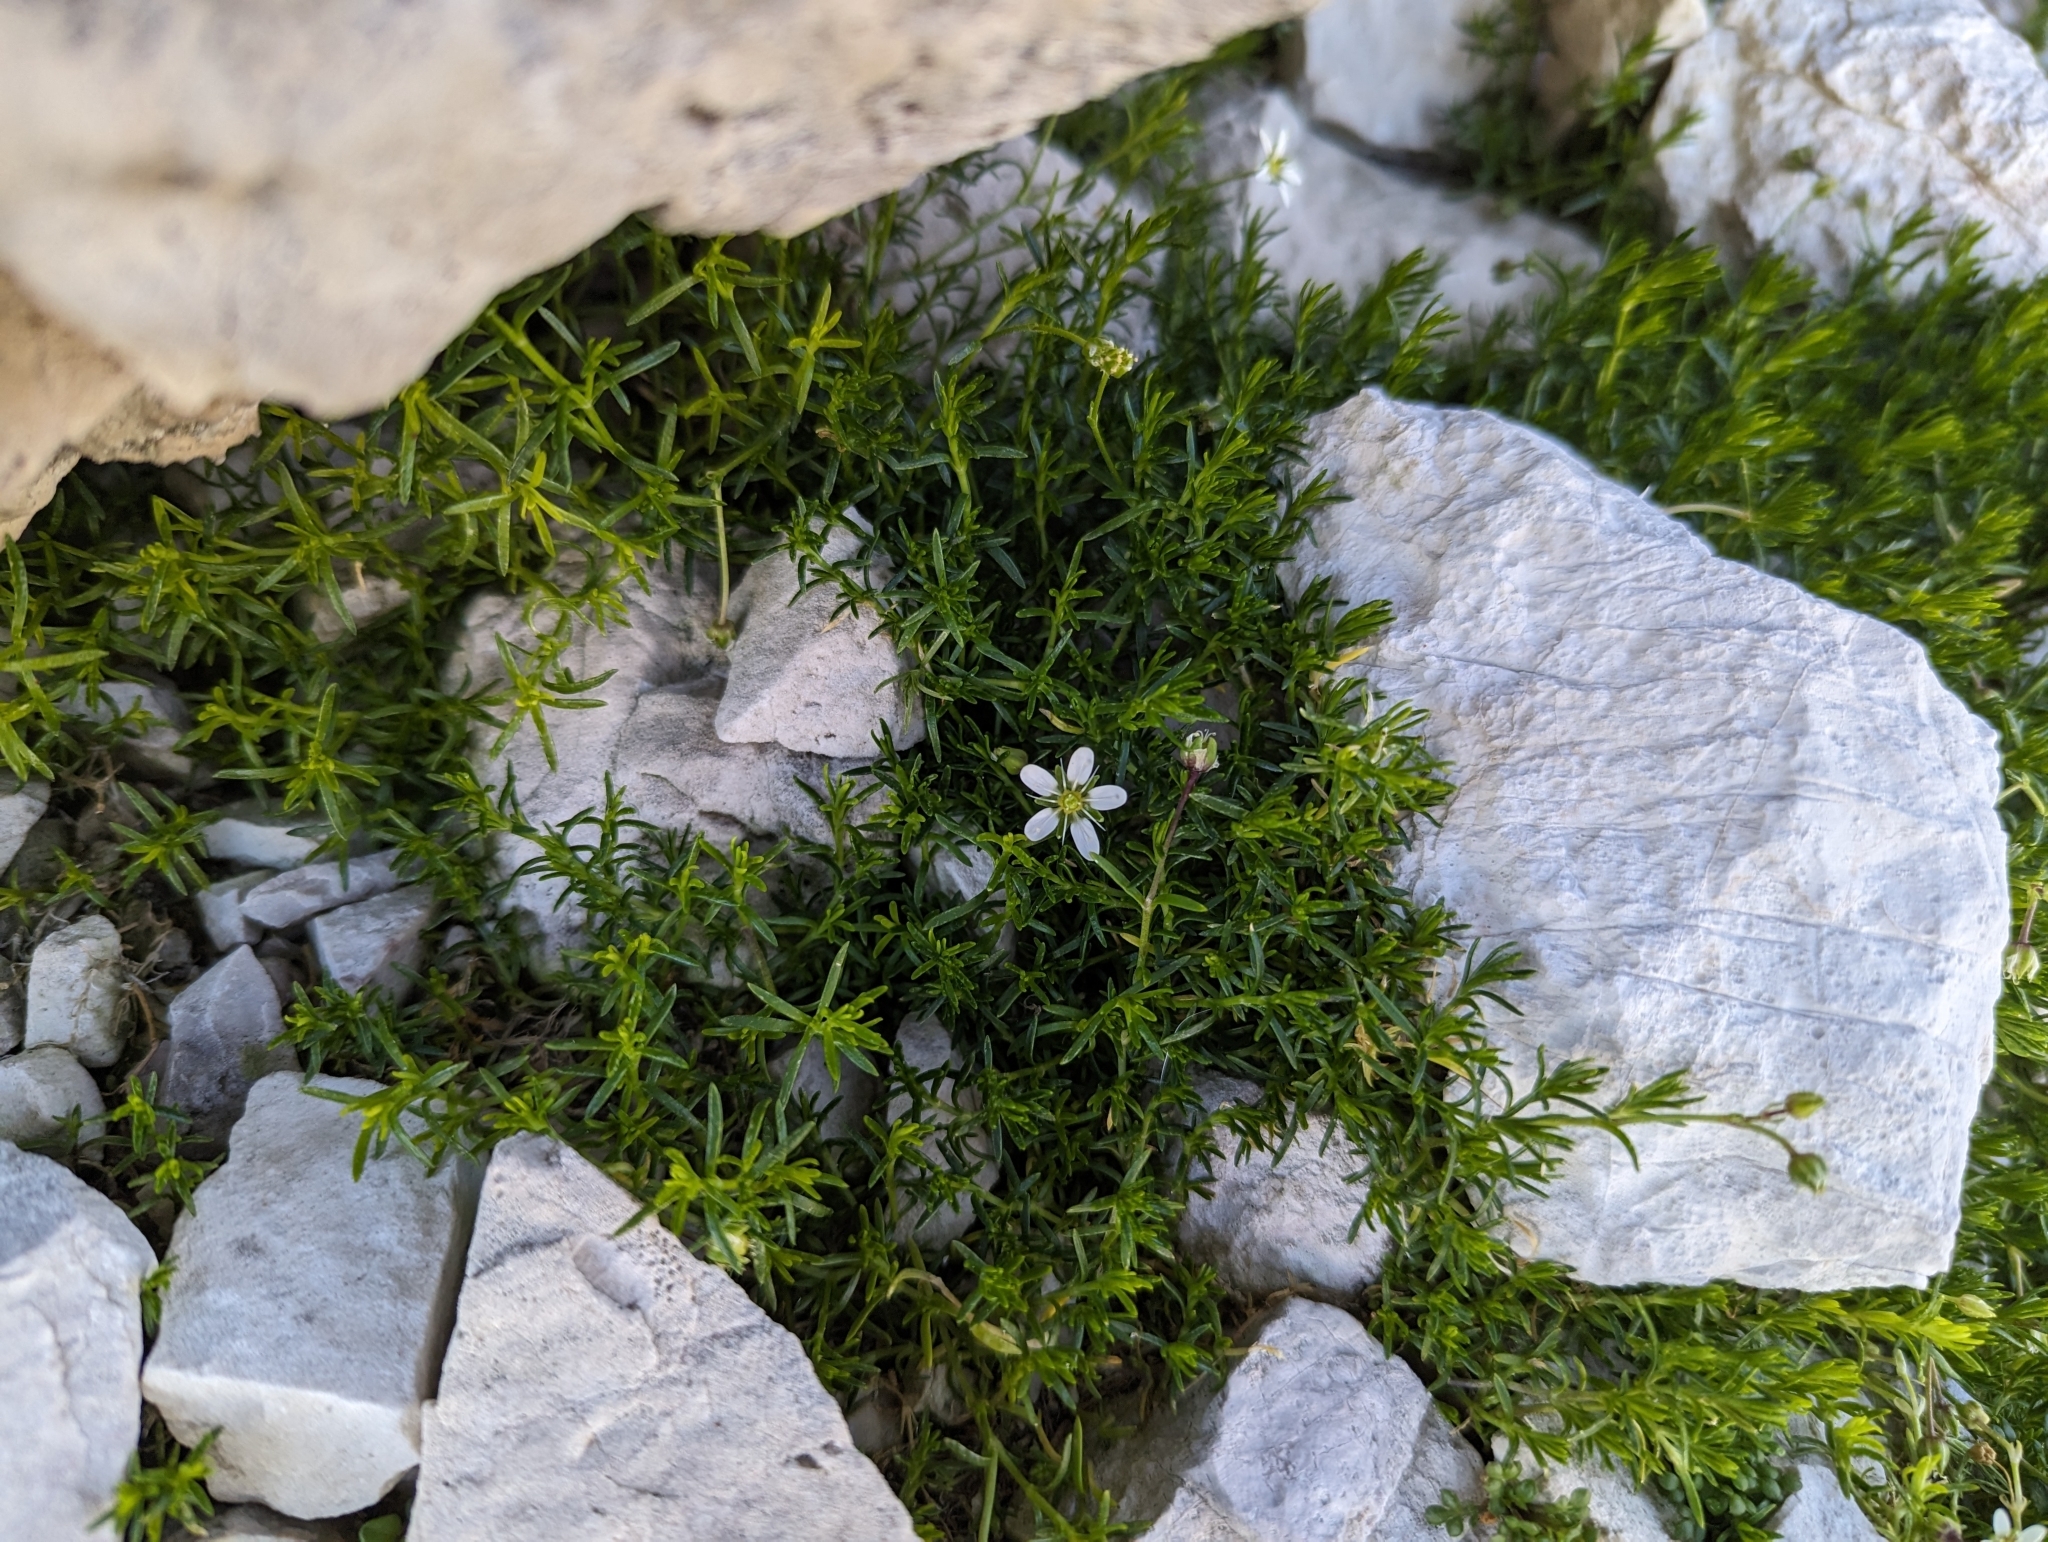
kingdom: Plantae
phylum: Tracheophyta
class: Magnoliopsida
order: Caryophyllales
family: Caryophyllaceae
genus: Moehringia
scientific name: Moehringia ciliata
